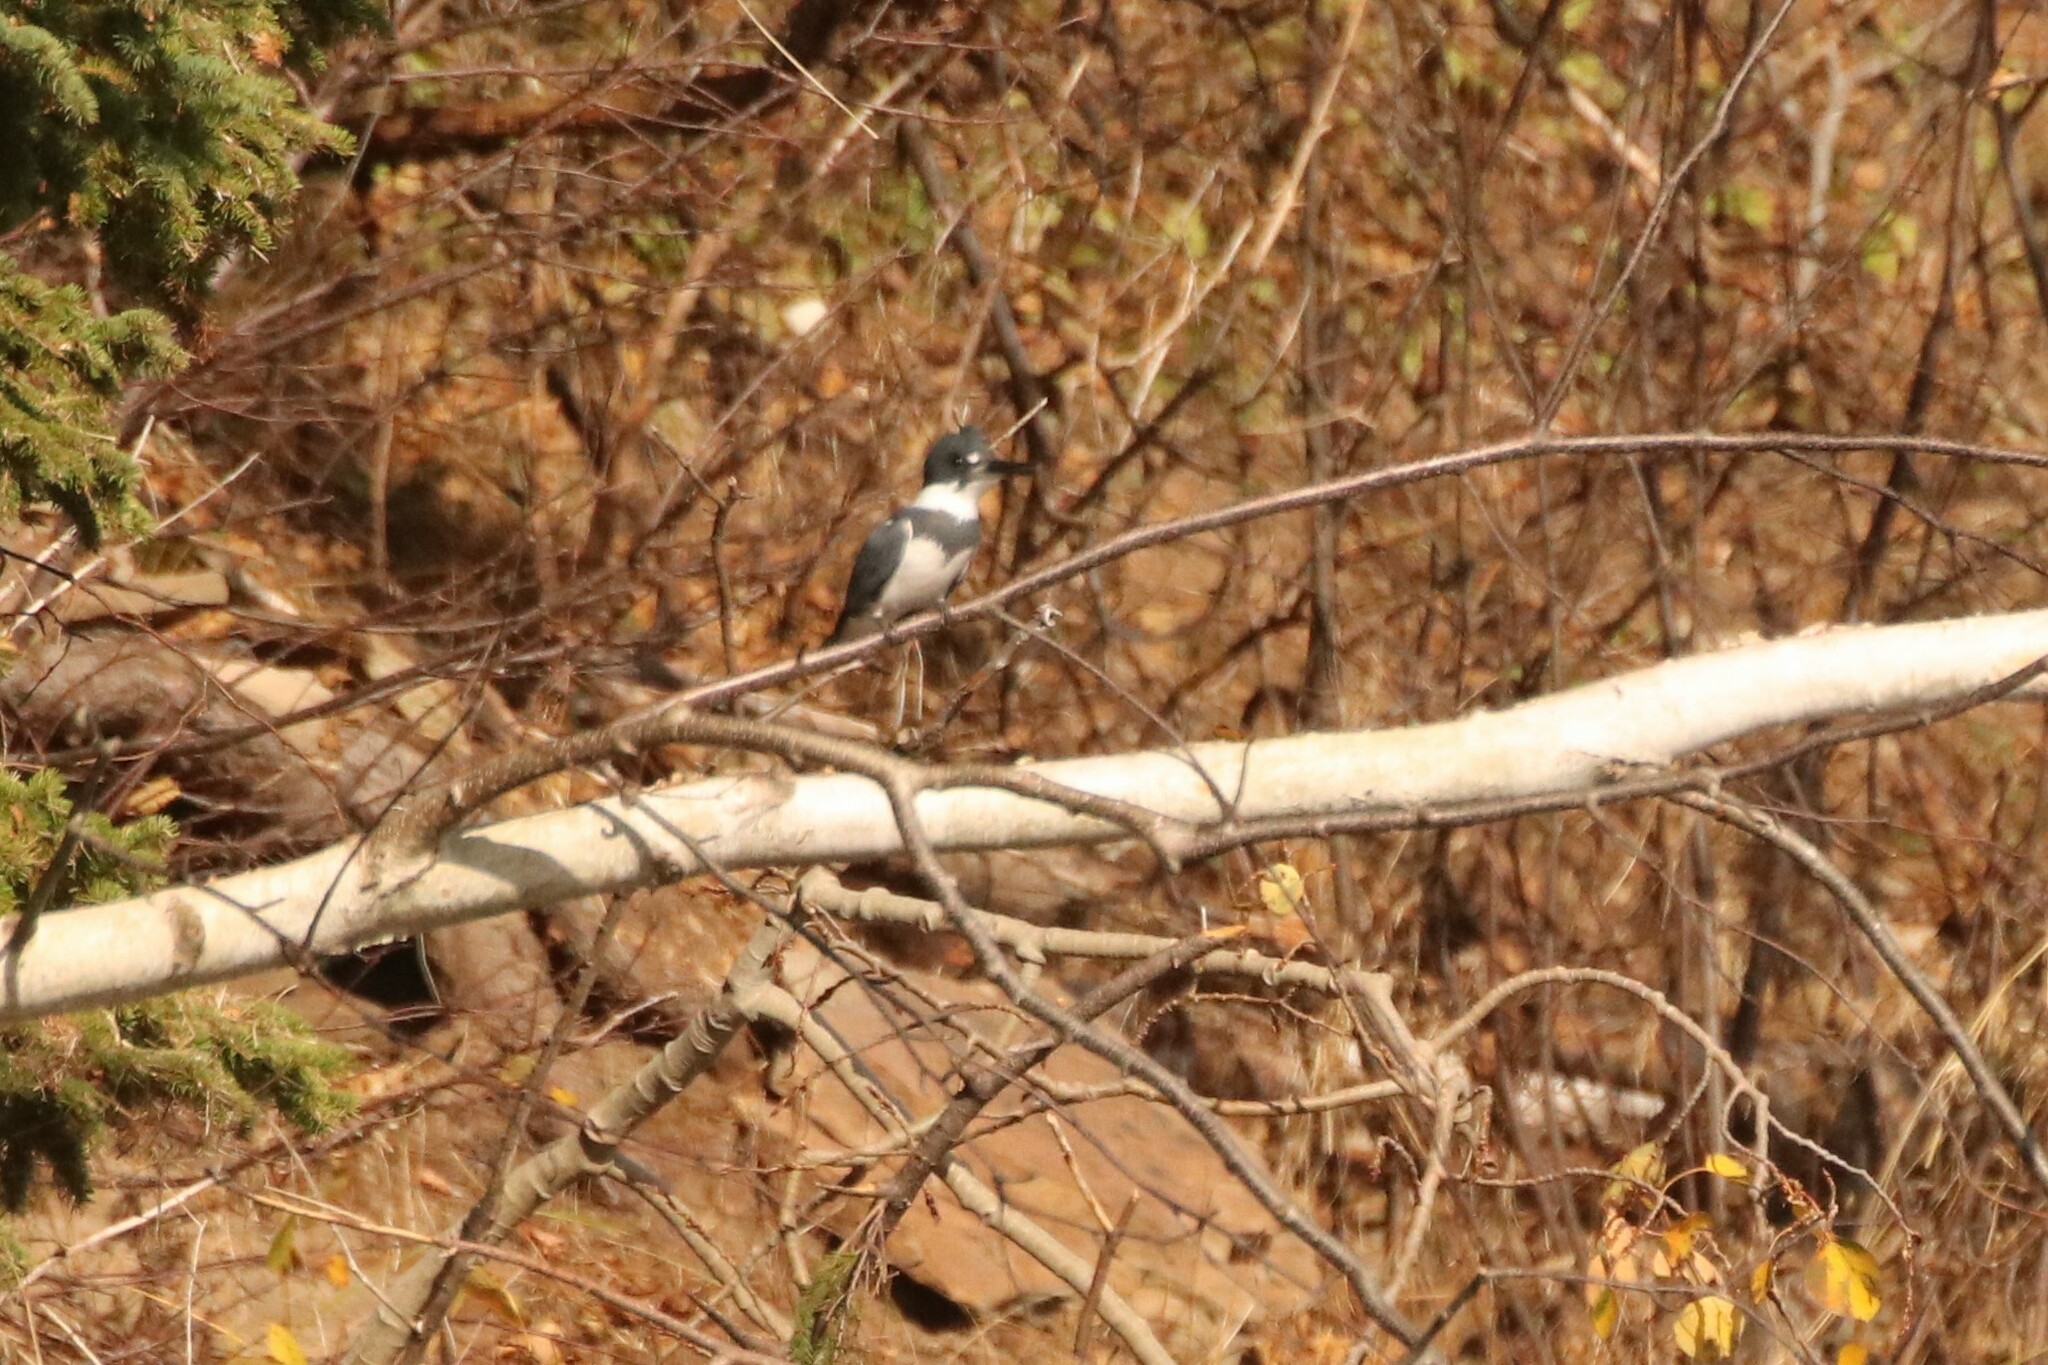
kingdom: Animalia
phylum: Chordata
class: Aves
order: Coraciiformes
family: Alcedinidae
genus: Megaceryle
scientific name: Megaceryle alcyon
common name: Belted kingfisher
